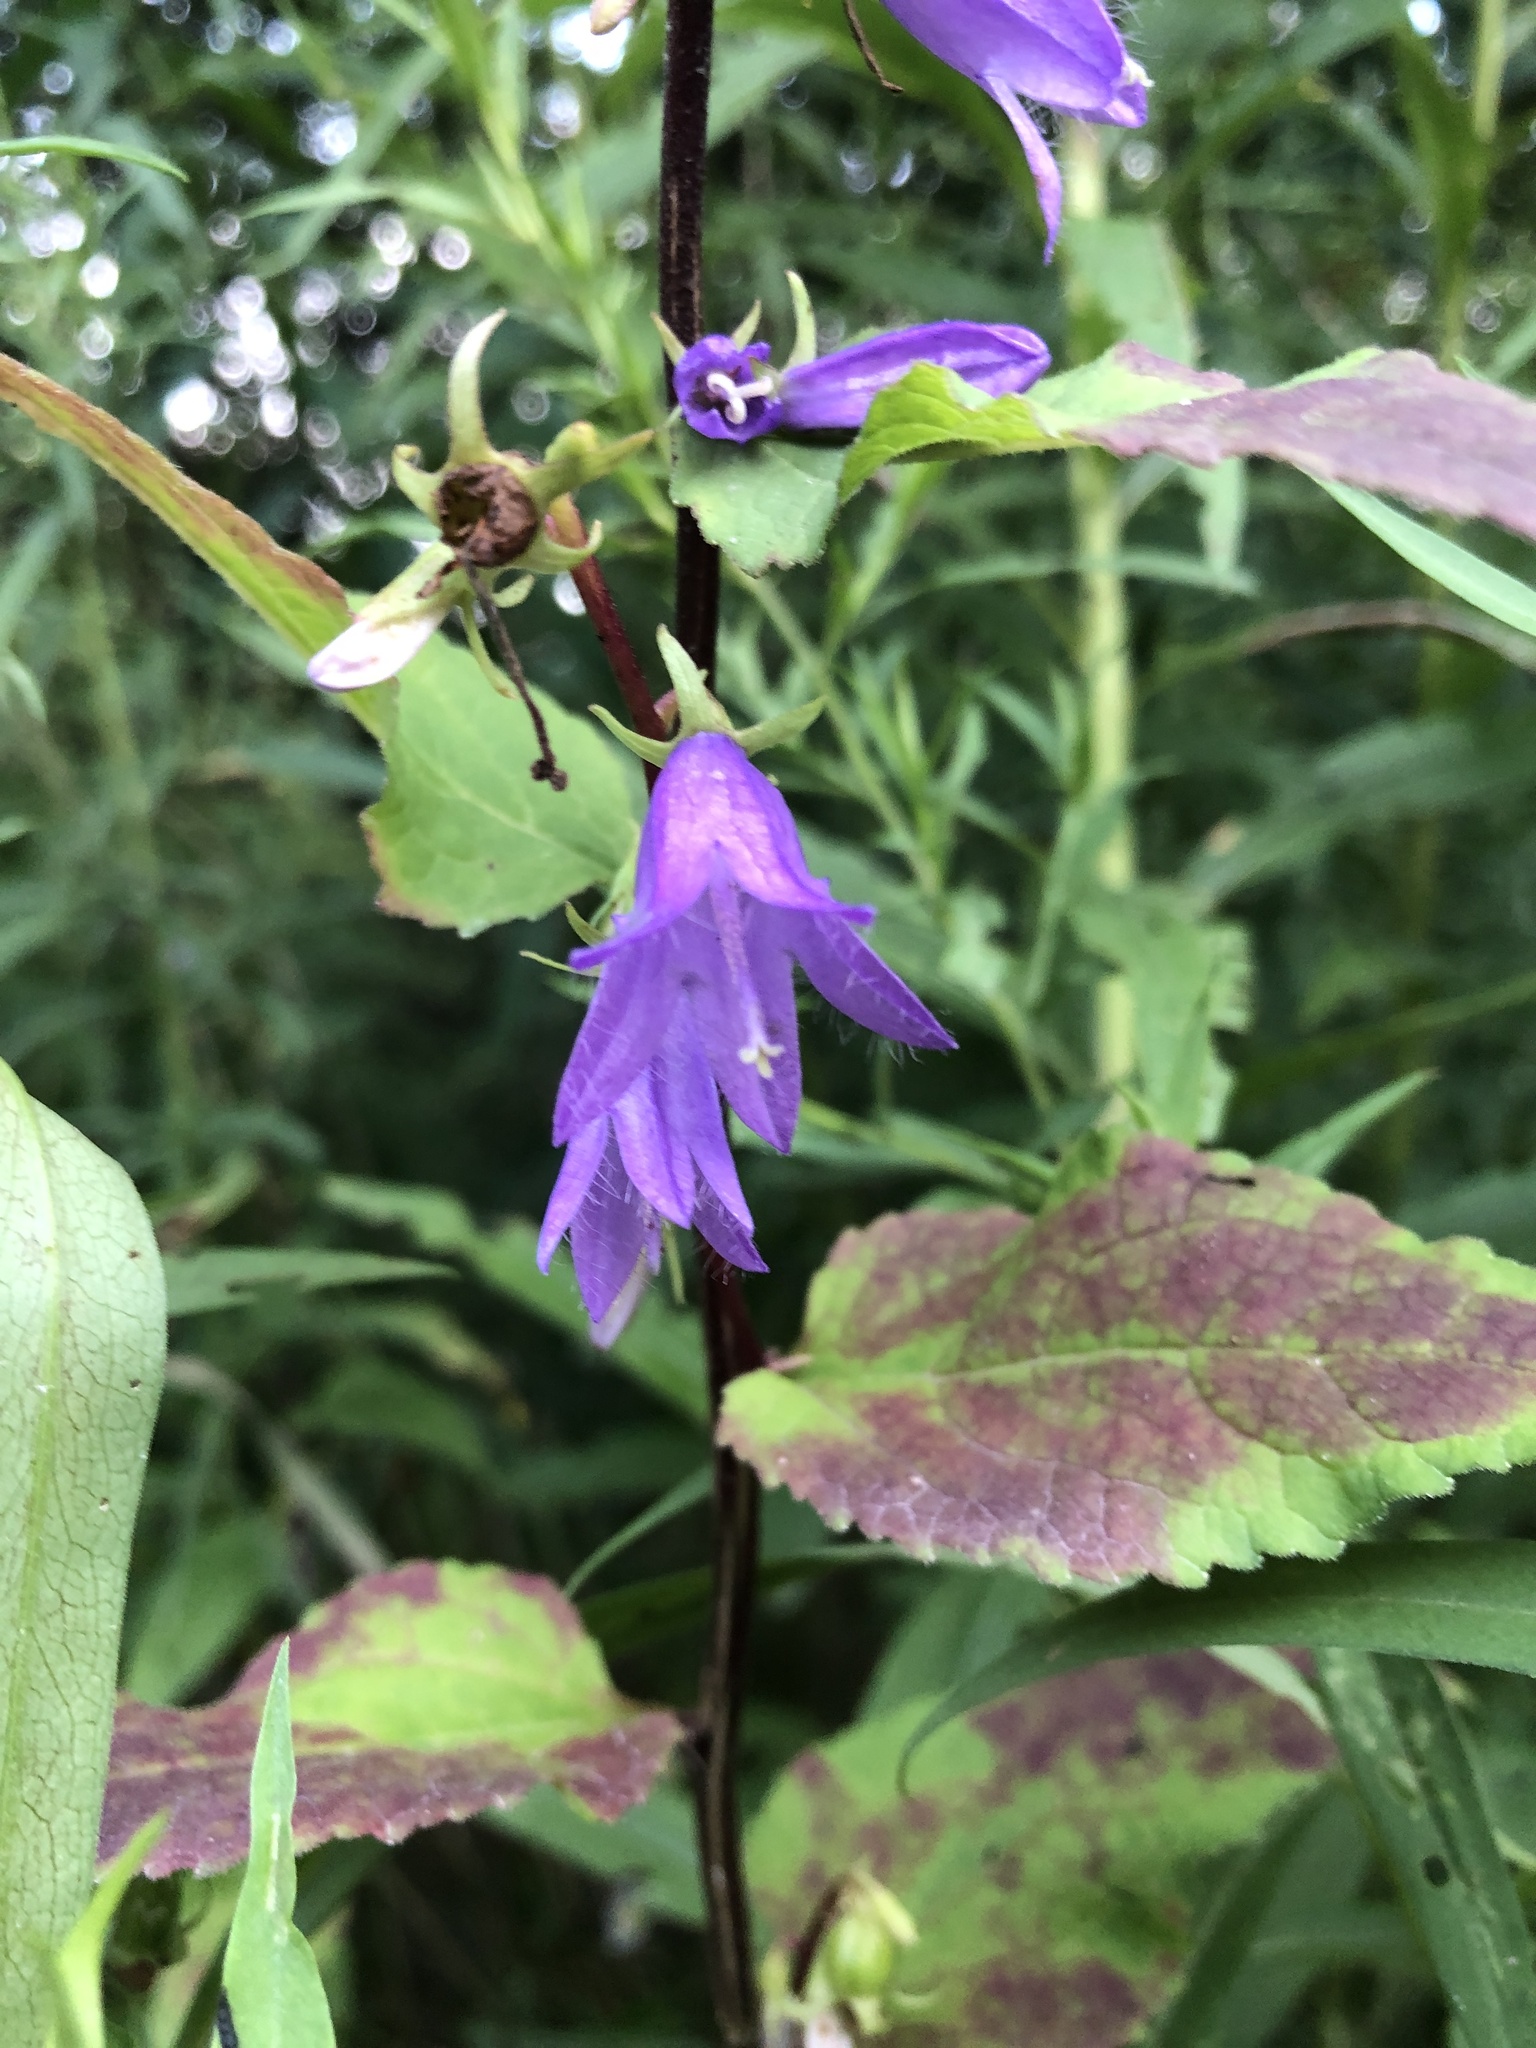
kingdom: Plantae
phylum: Tracheophyta
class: Magnoliopsida
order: Asterales
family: Campanulaceae
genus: Campanula
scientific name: Campanula rapunculoides
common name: Creeping bellflower
